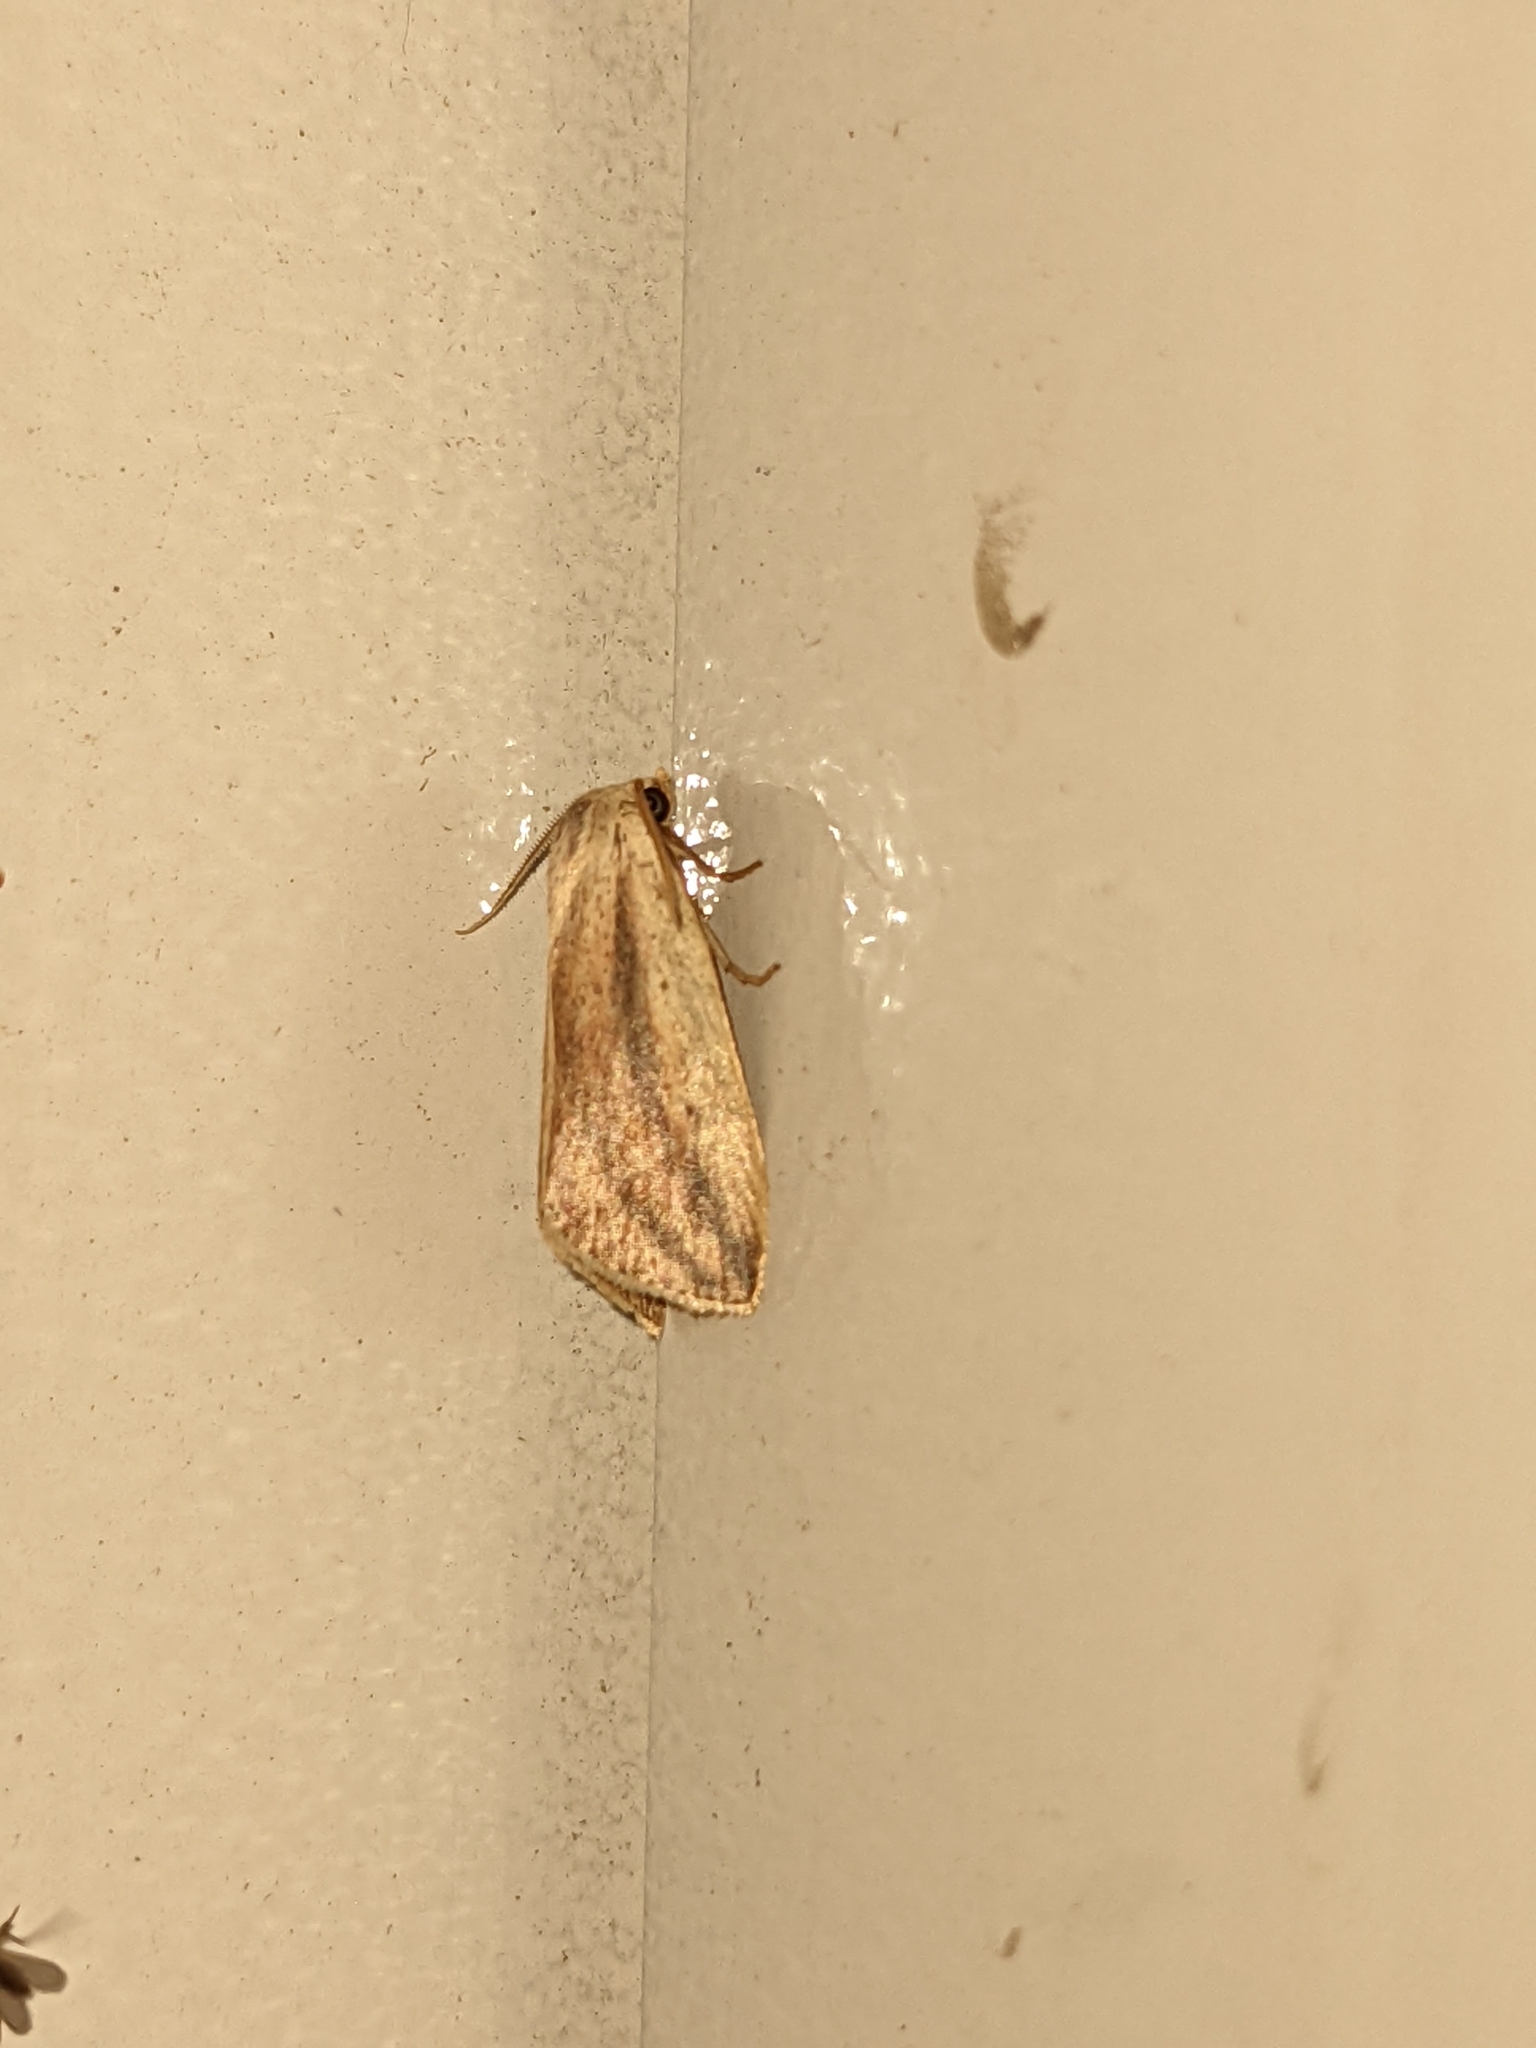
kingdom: Animalia
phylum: Arthropoda
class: Insecta
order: Lepidoptera
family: Noctuidae
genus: Amolita
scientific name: Amolita fessa
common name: Feeble grass moth
